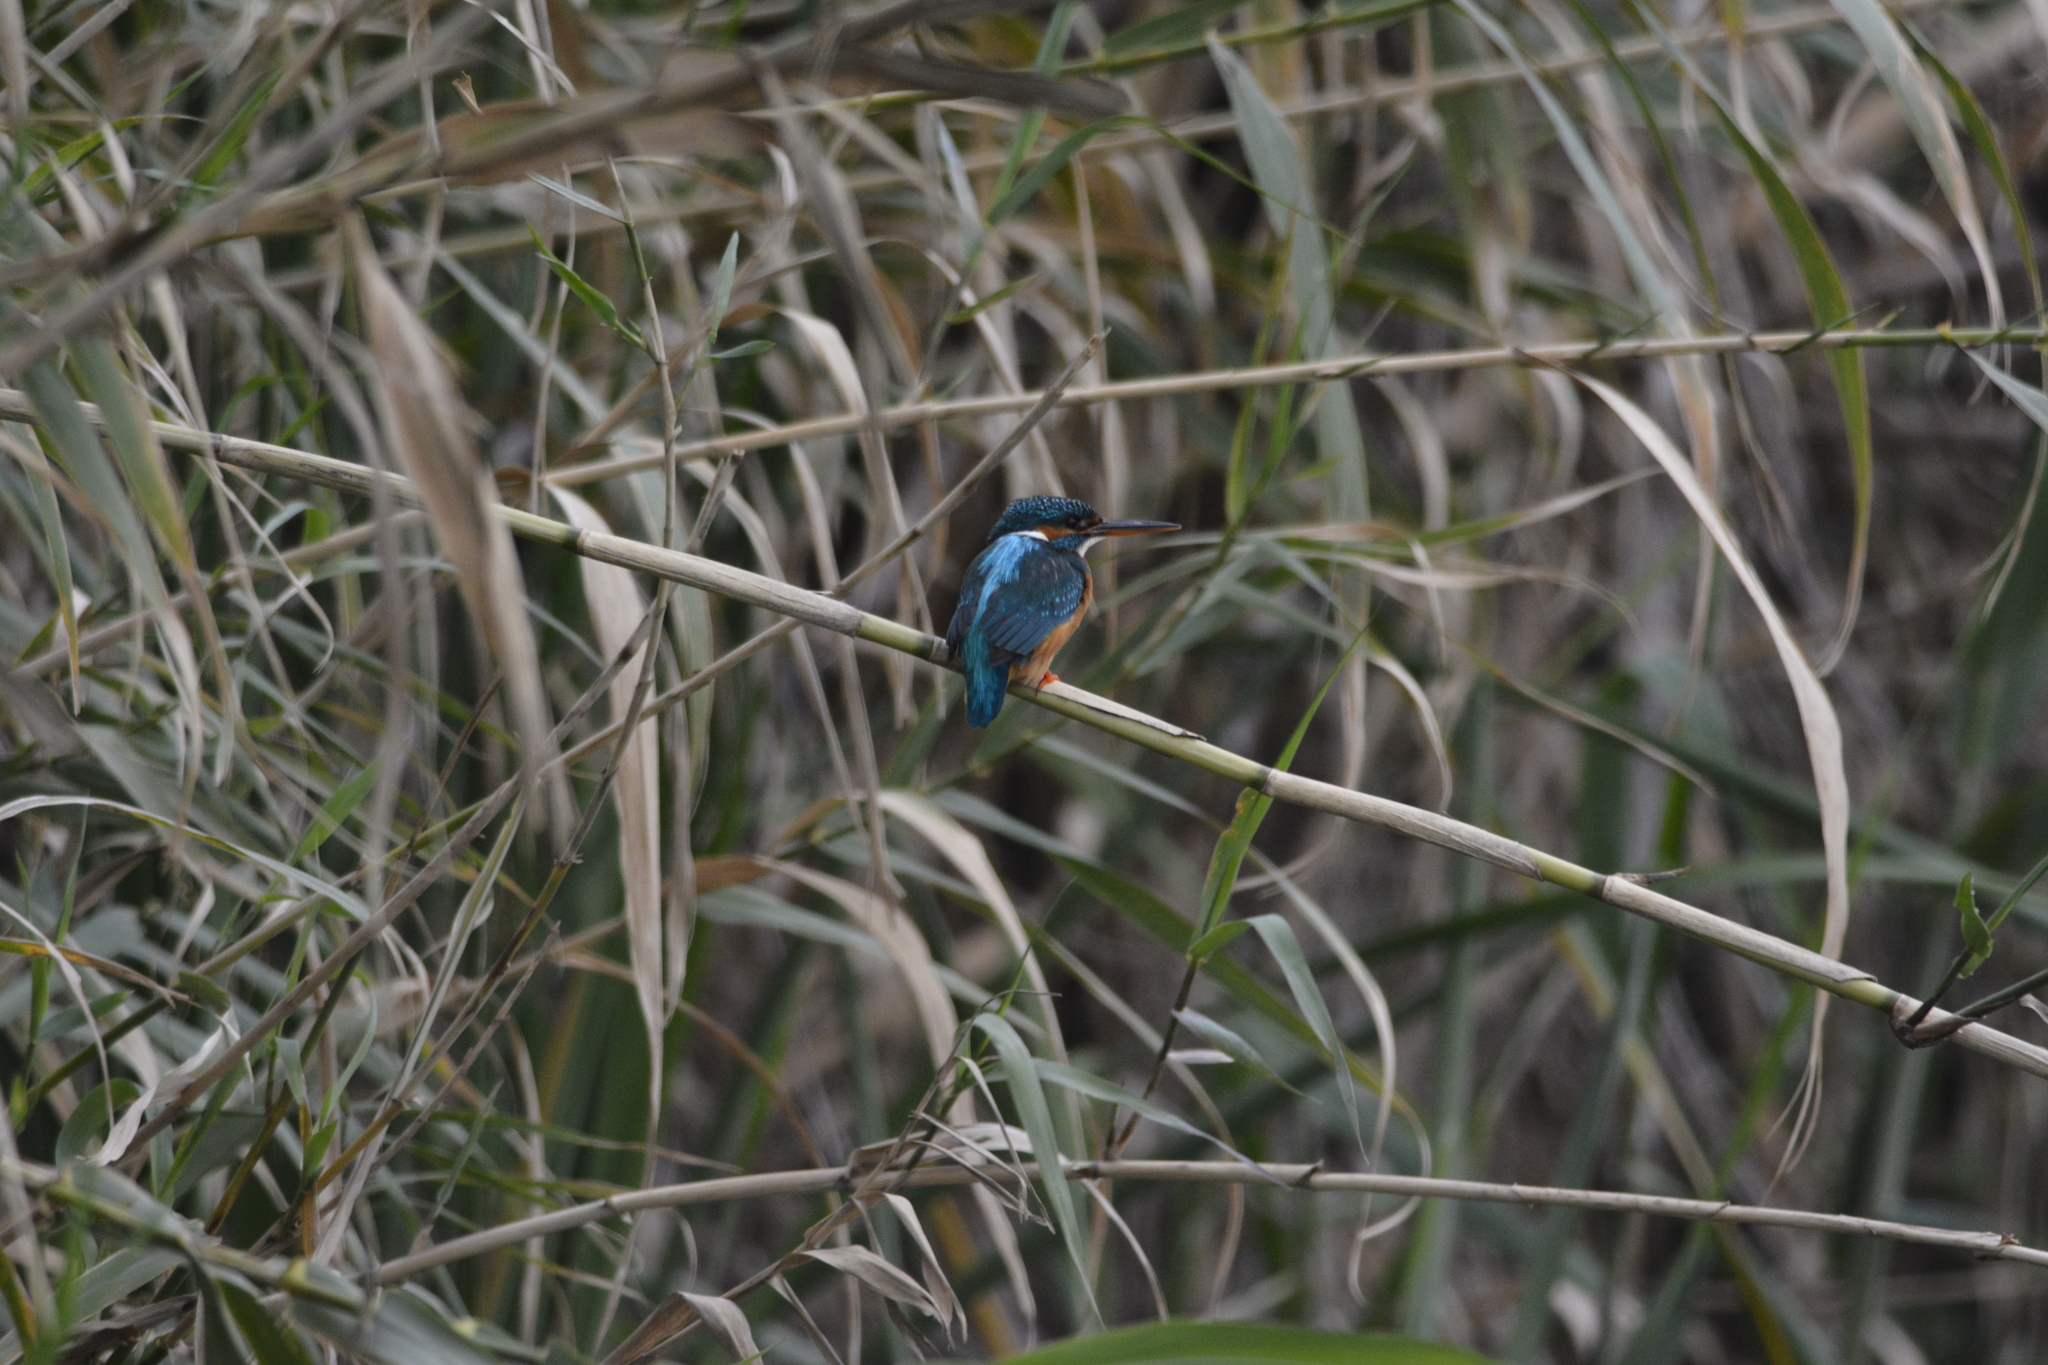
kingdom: Animalia
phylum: Chordata
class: Aves
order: Coraciiformes
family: Alcedinidae
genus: Alcedo
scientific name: Alcedo atthis
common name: Common kingfisher
